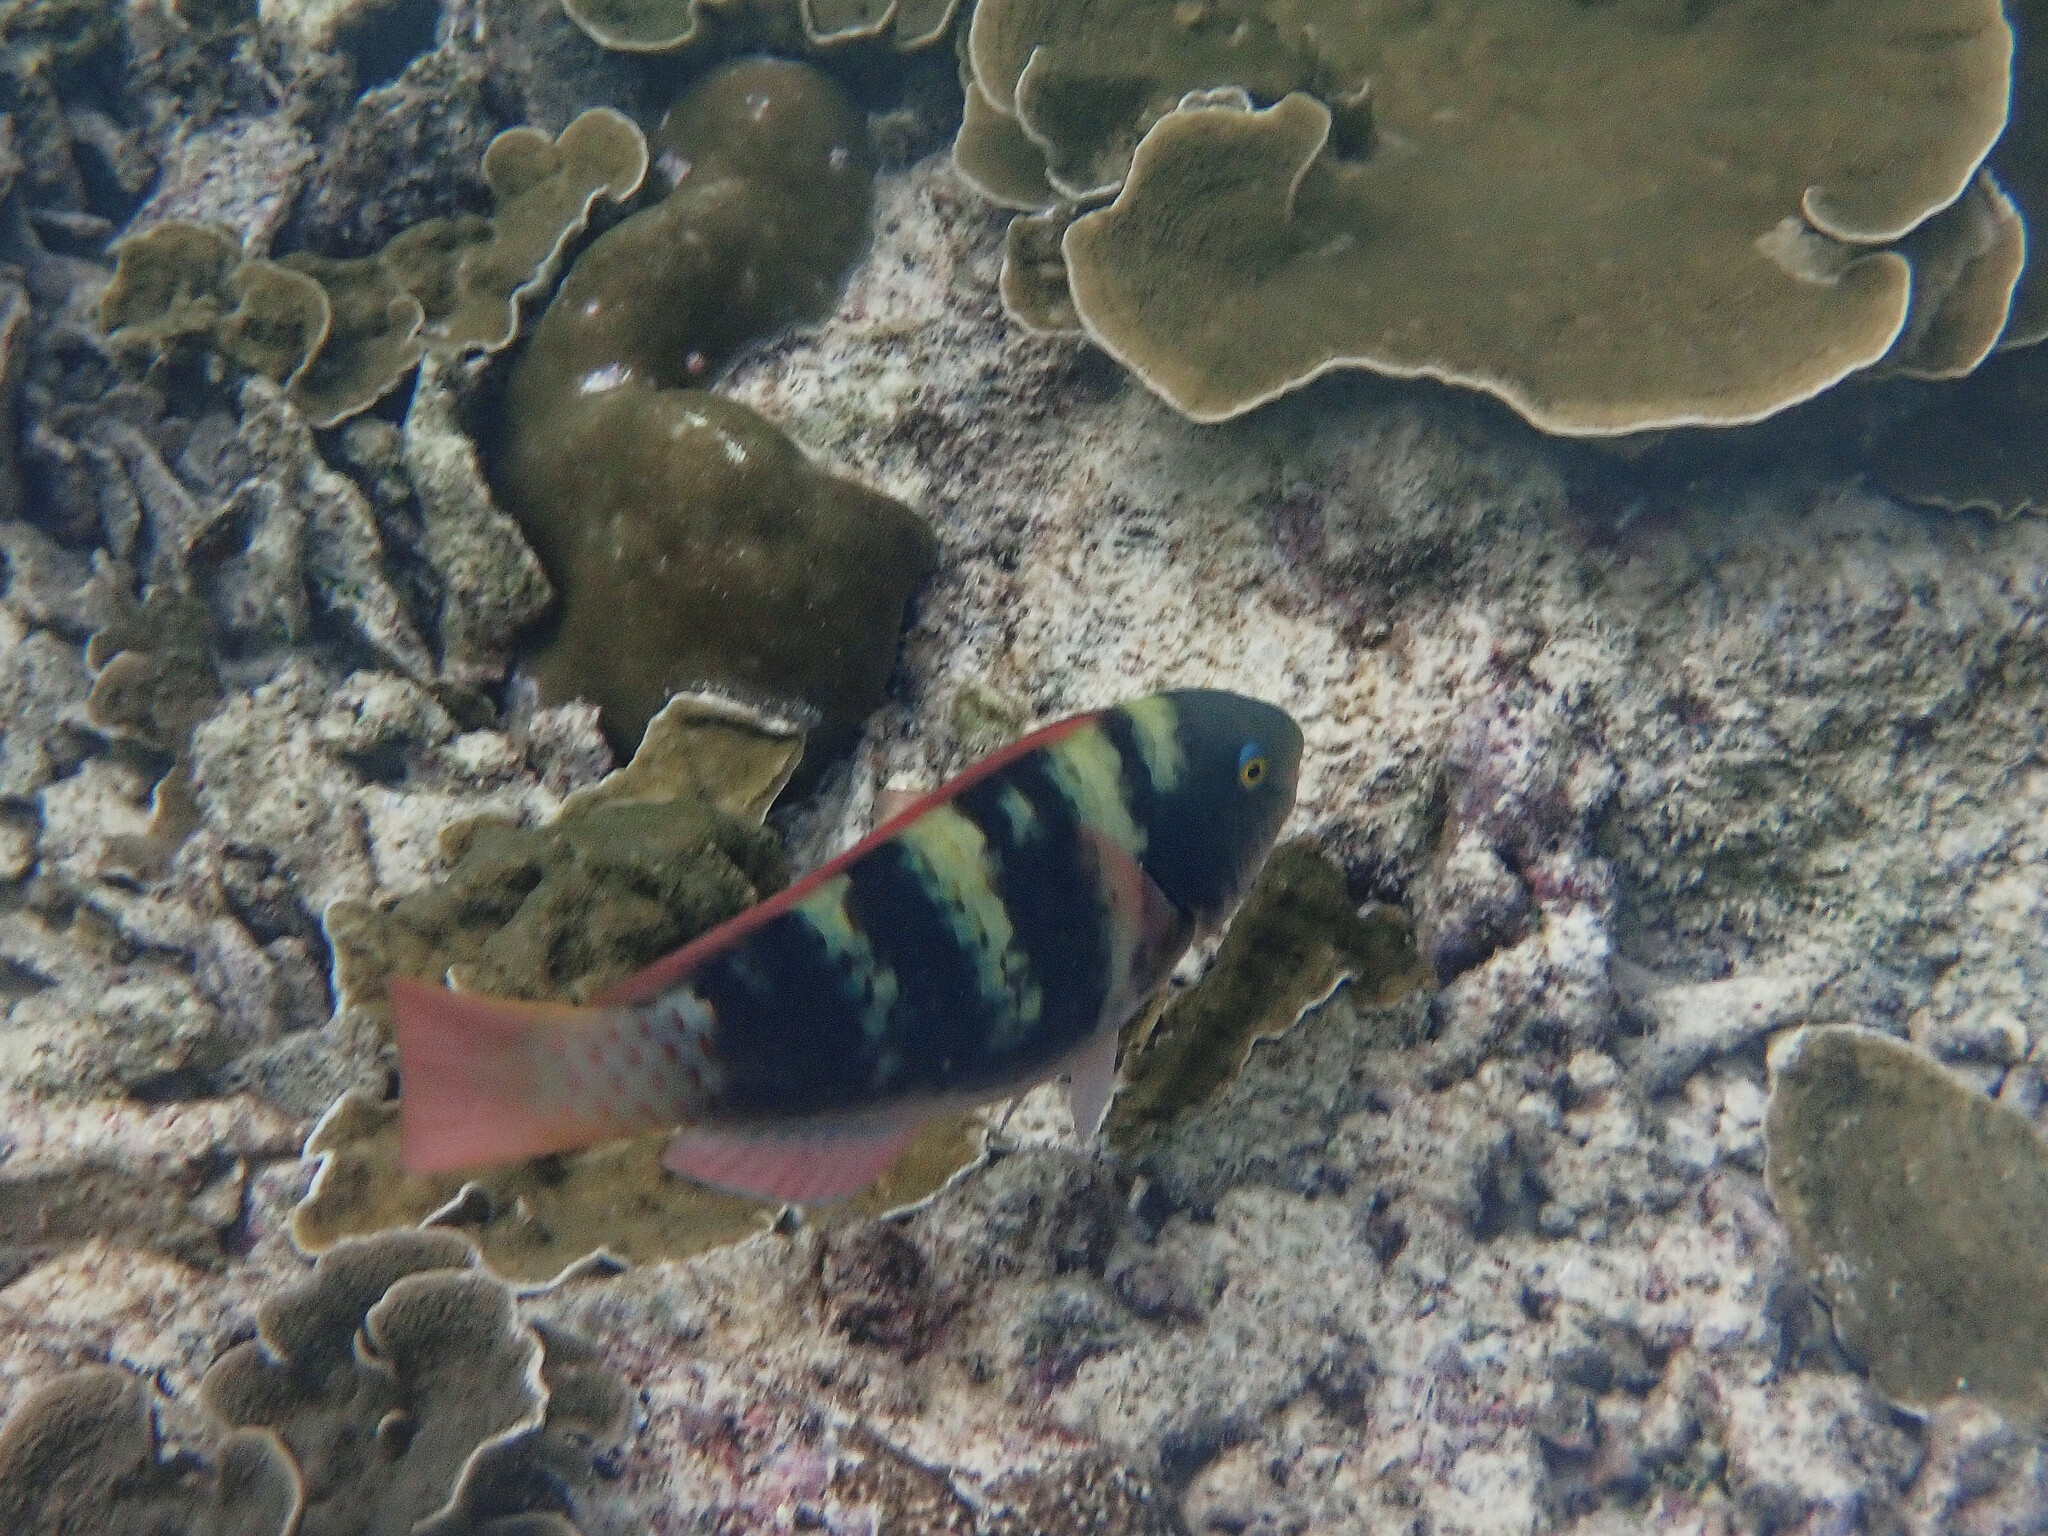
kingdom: Animalia
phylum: Chordata
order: Perciformes
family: Scaridae
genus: Chlorurus
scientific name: Chlorurus troschelii
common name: Troschel's parrotfish
